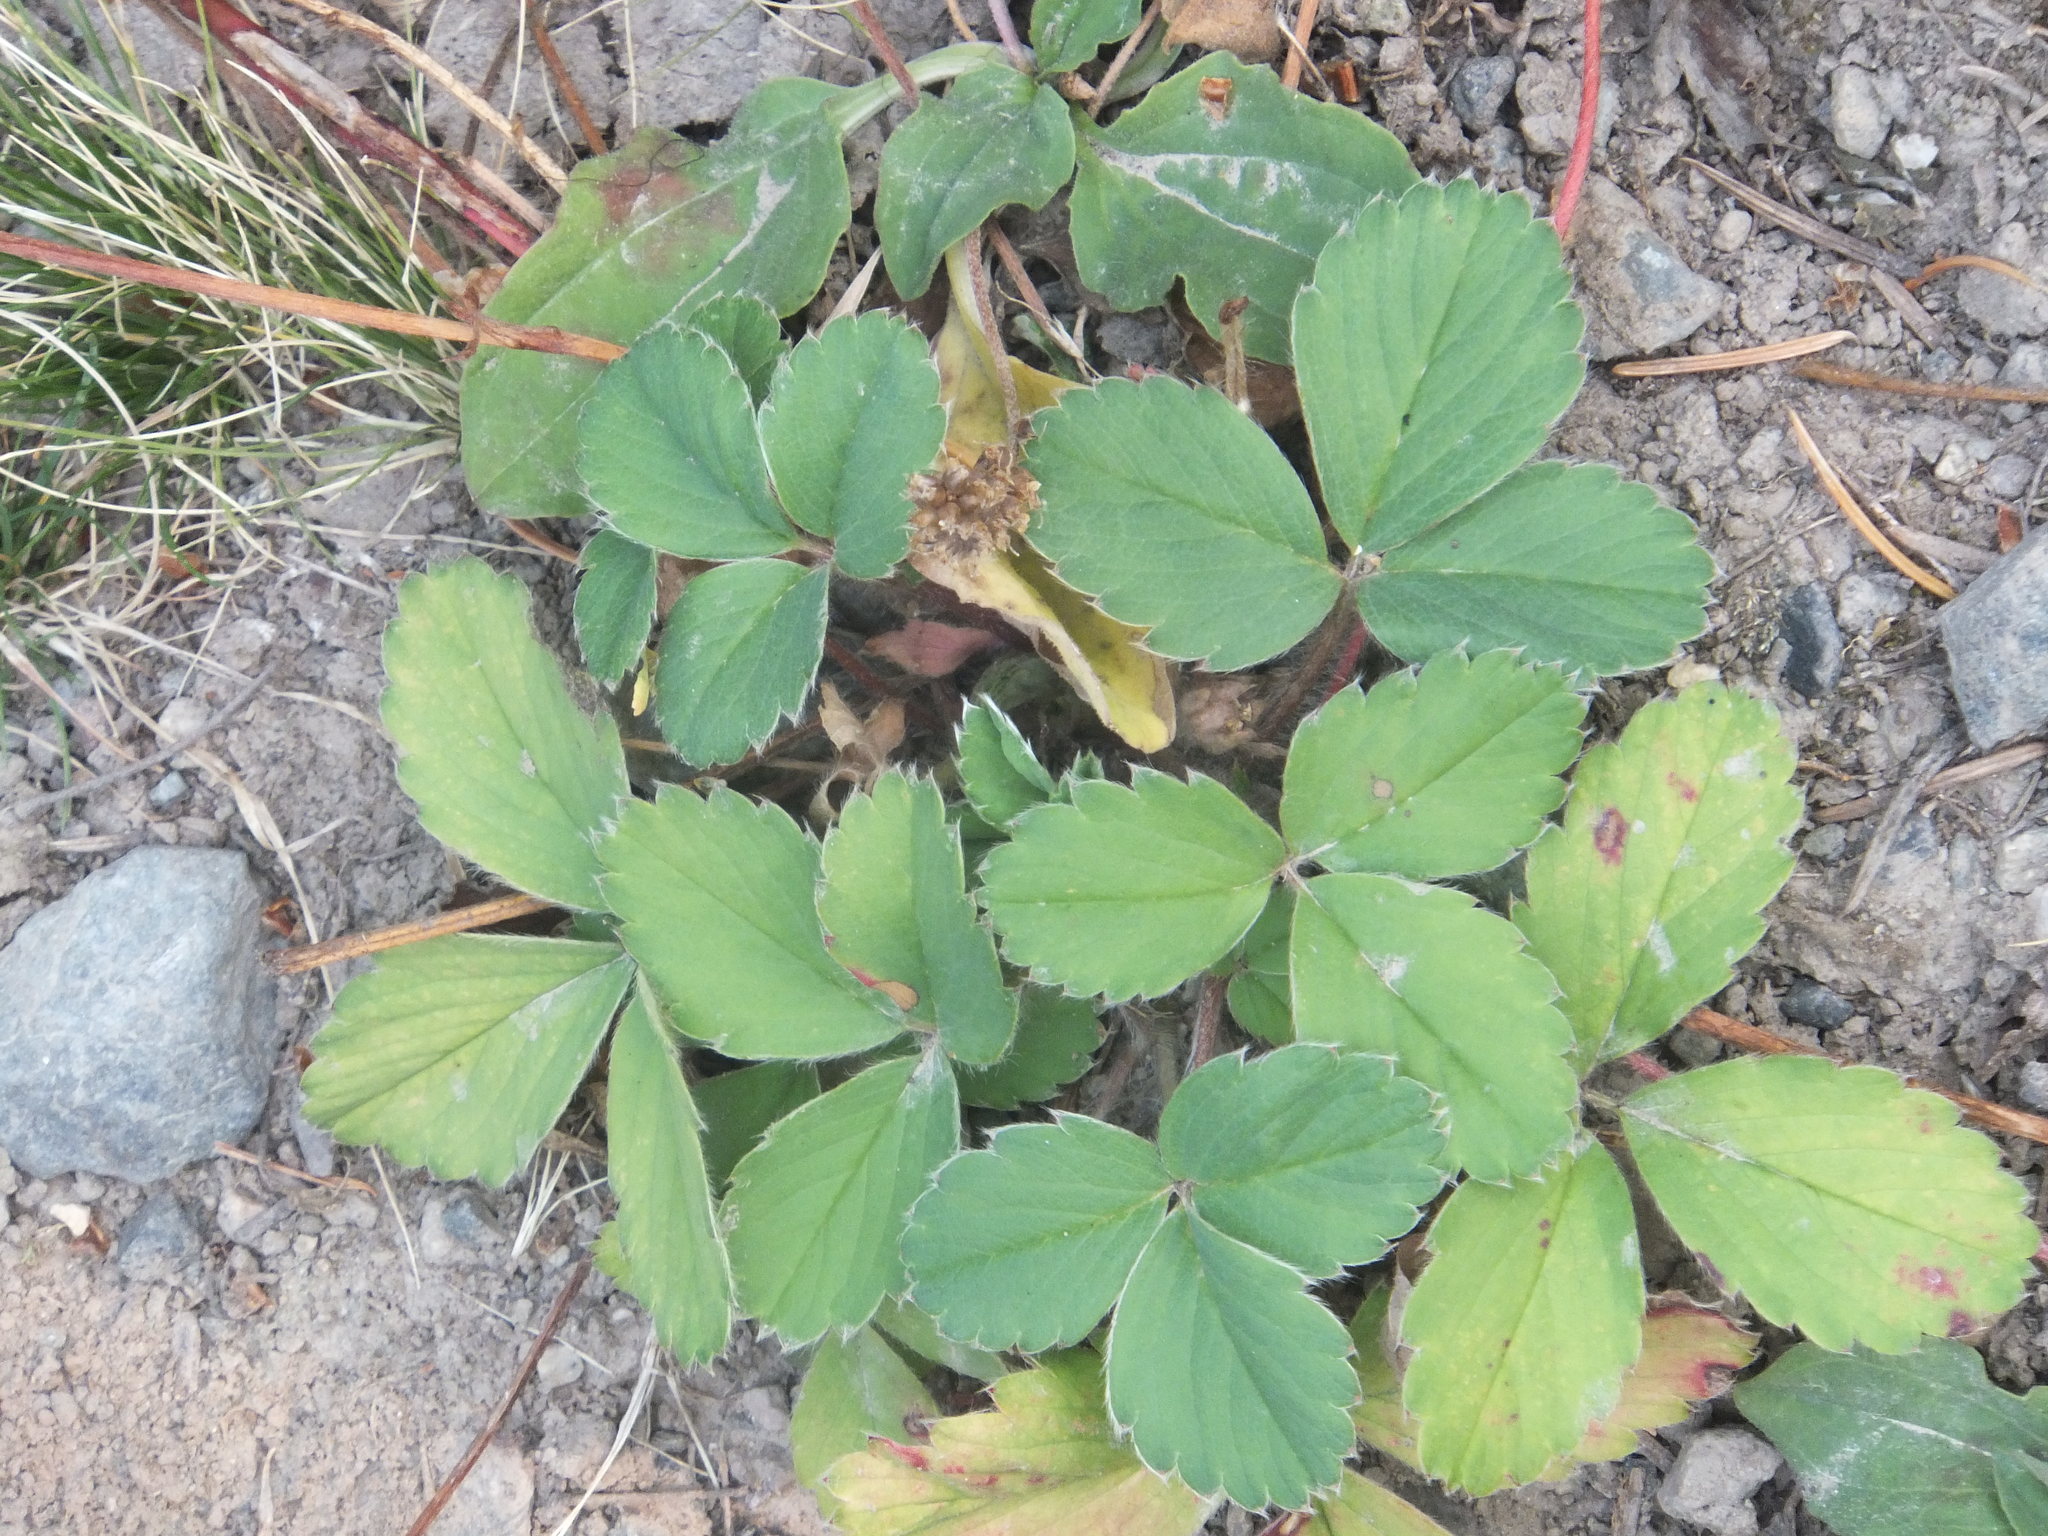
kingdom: Plantae
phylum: Tracheophyta
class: Magnoliopsida
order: Rosales
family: Rosaceae
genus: Fragaria
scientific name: Fragaria virginiana
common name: Thickleaved wild strawberry
